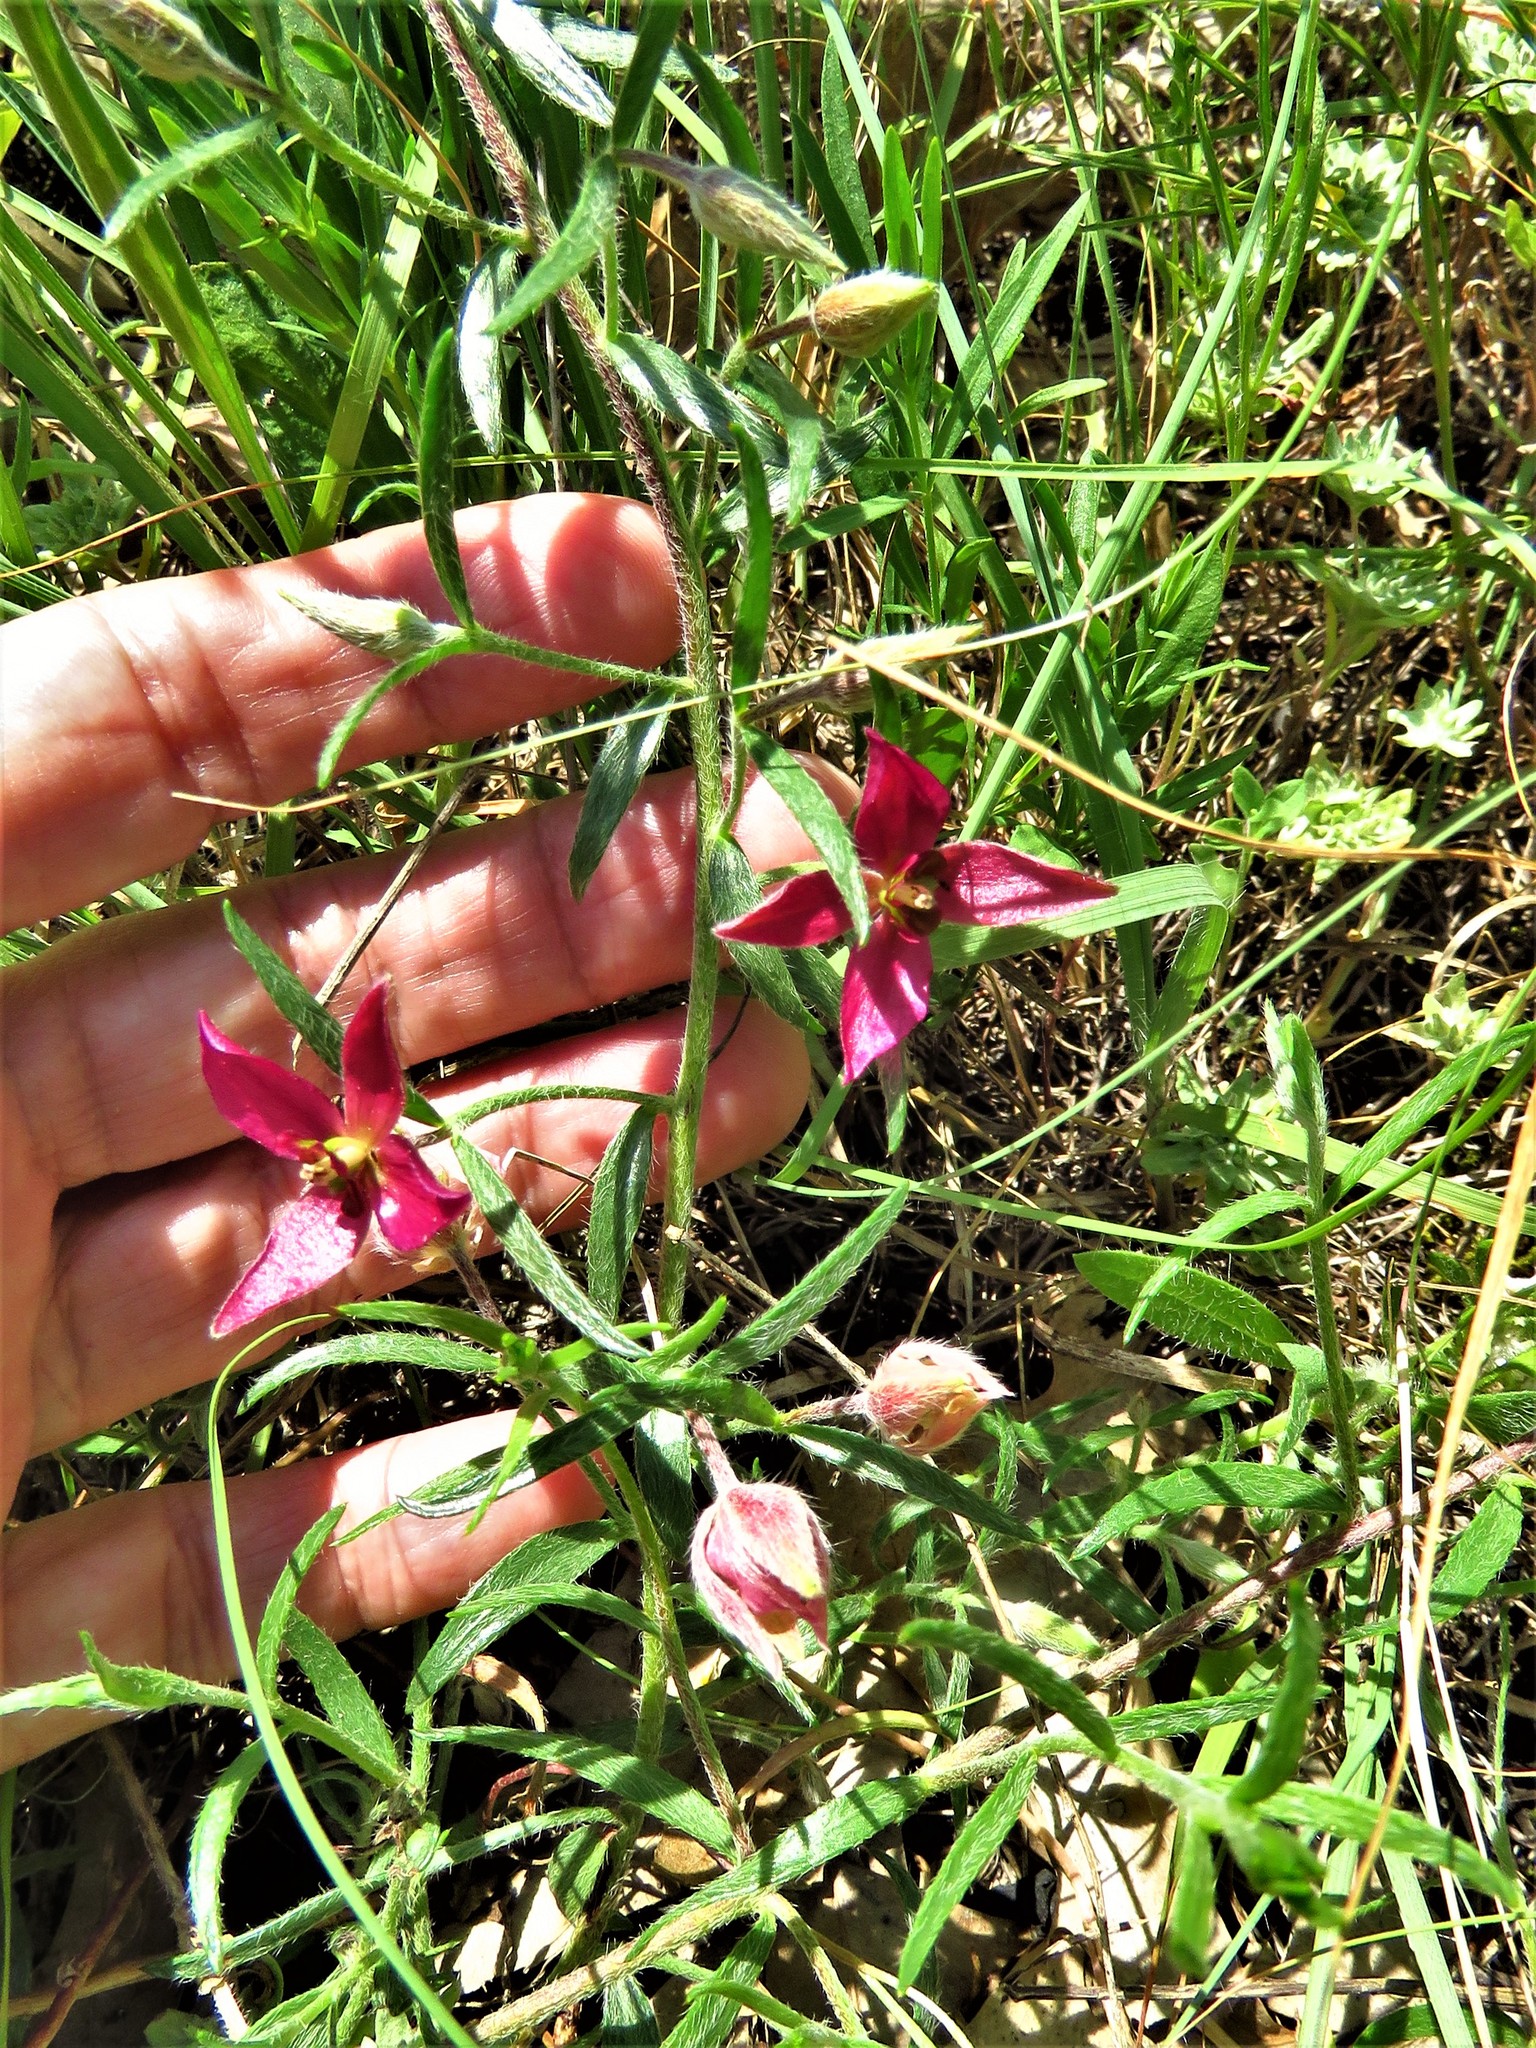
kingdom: Plantae
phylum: Tracheophyta
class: Magnoliopsida
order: Zygophyllales
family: Krameriaceae
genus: Krameria
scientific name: Krameria lanceolata
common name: Ratany
